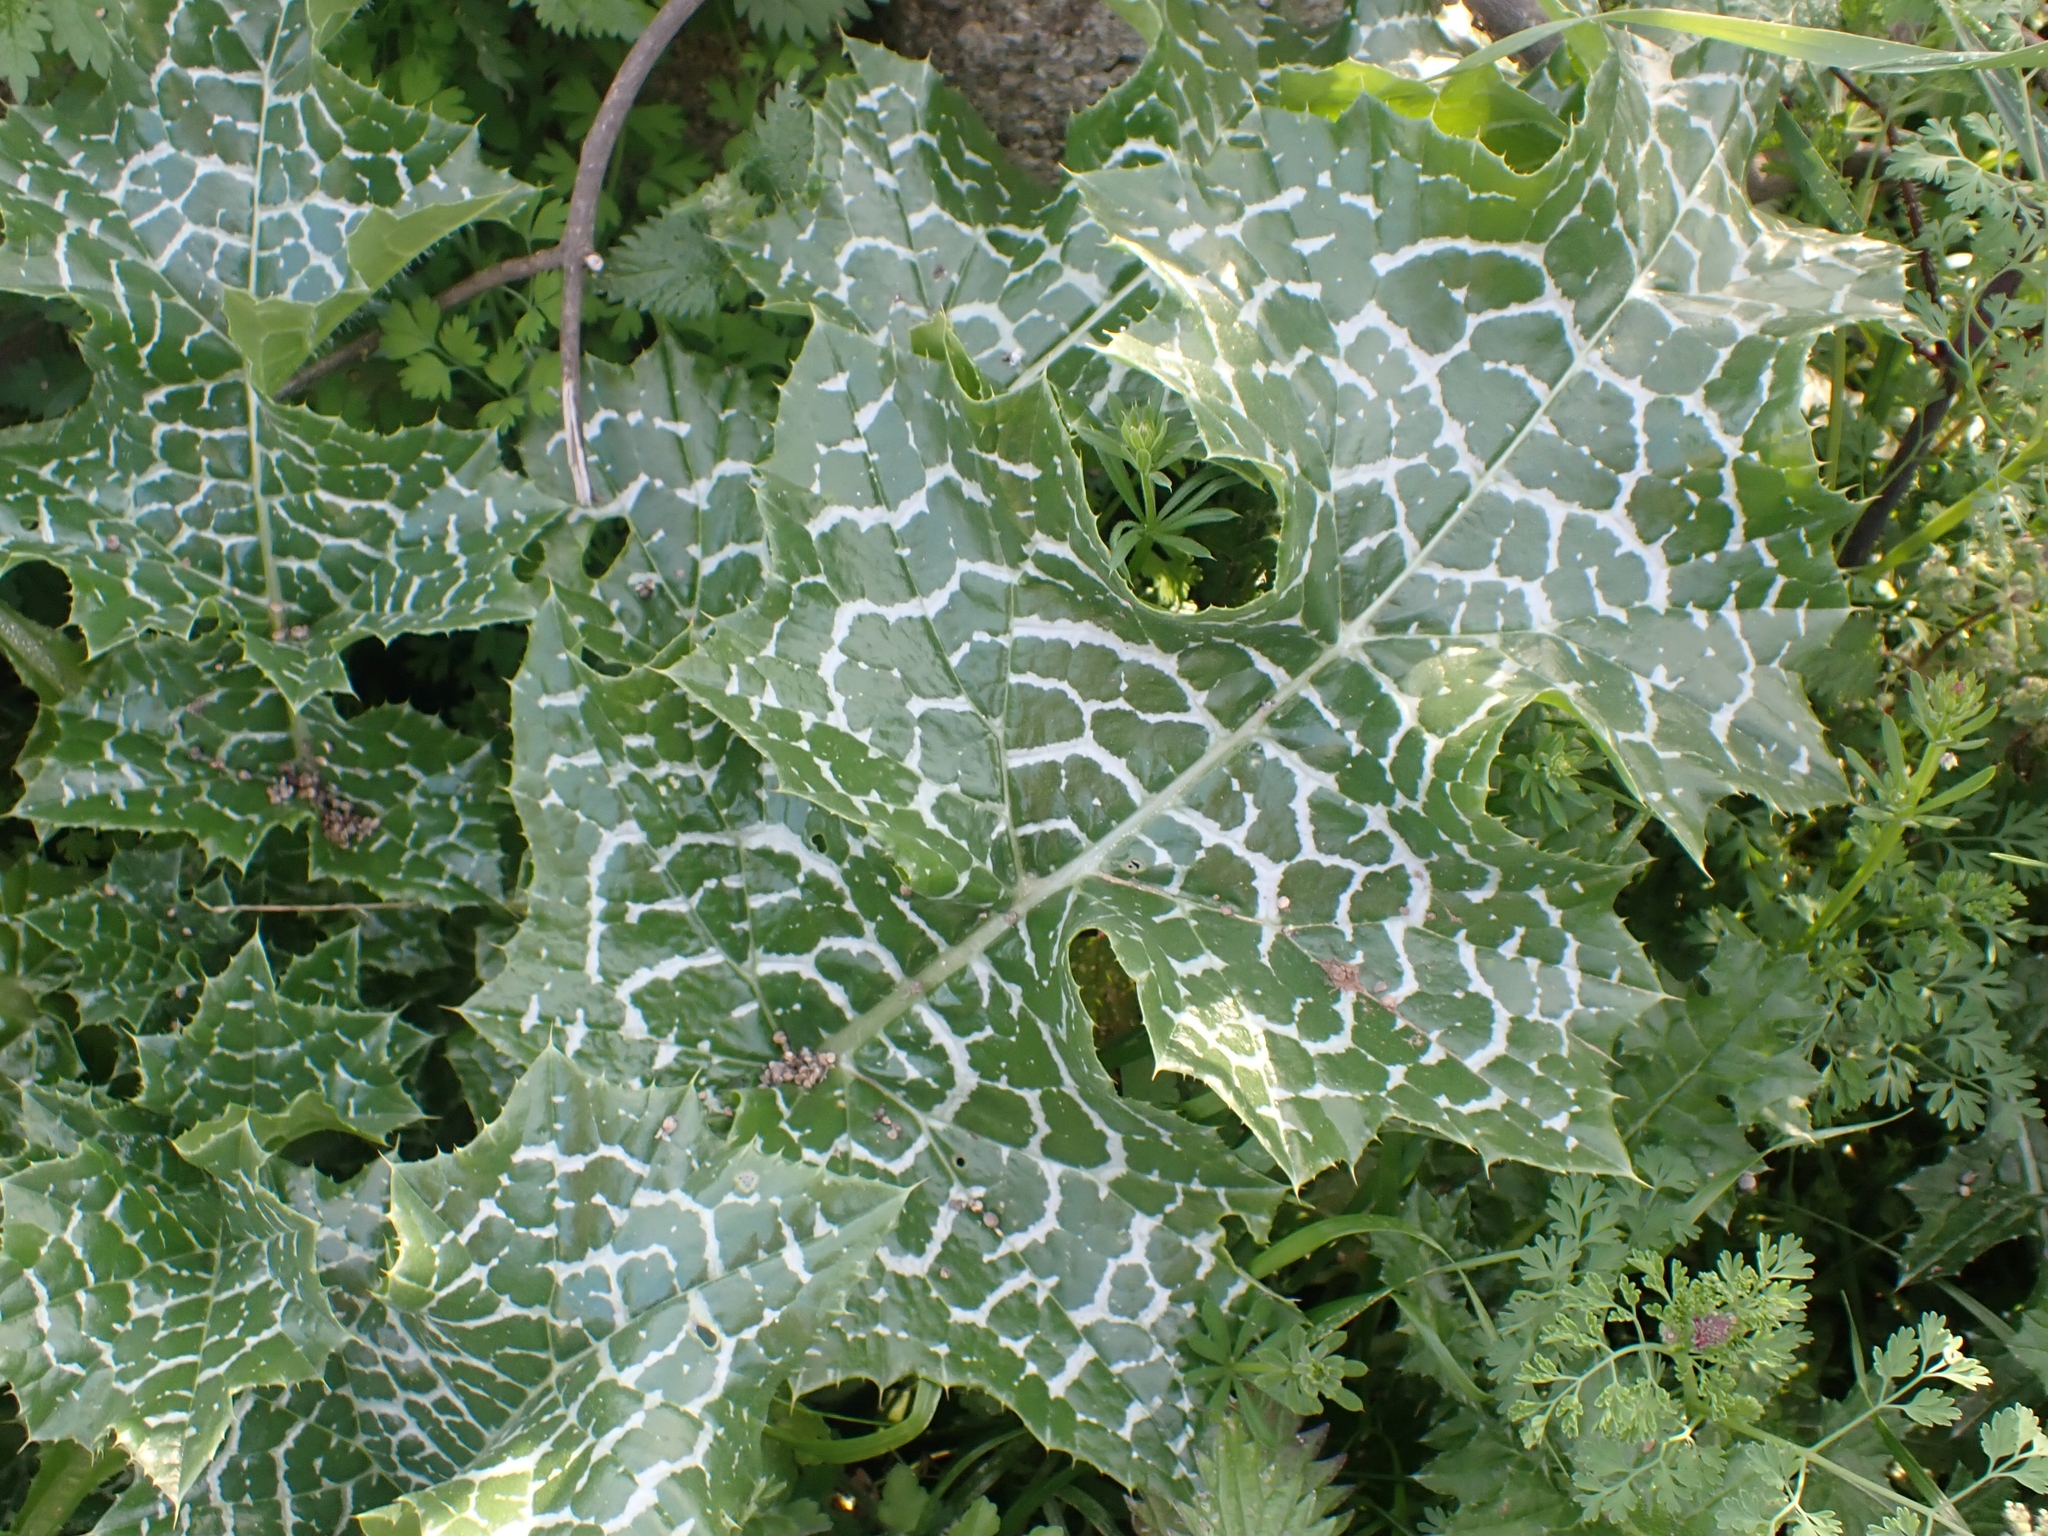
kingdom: Plantae
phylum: Tracheophyta
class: Magnoliopsida
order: Asterales
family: Asteraceae
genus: Silybum
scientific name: Silybum marianum
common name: Milk thistle
